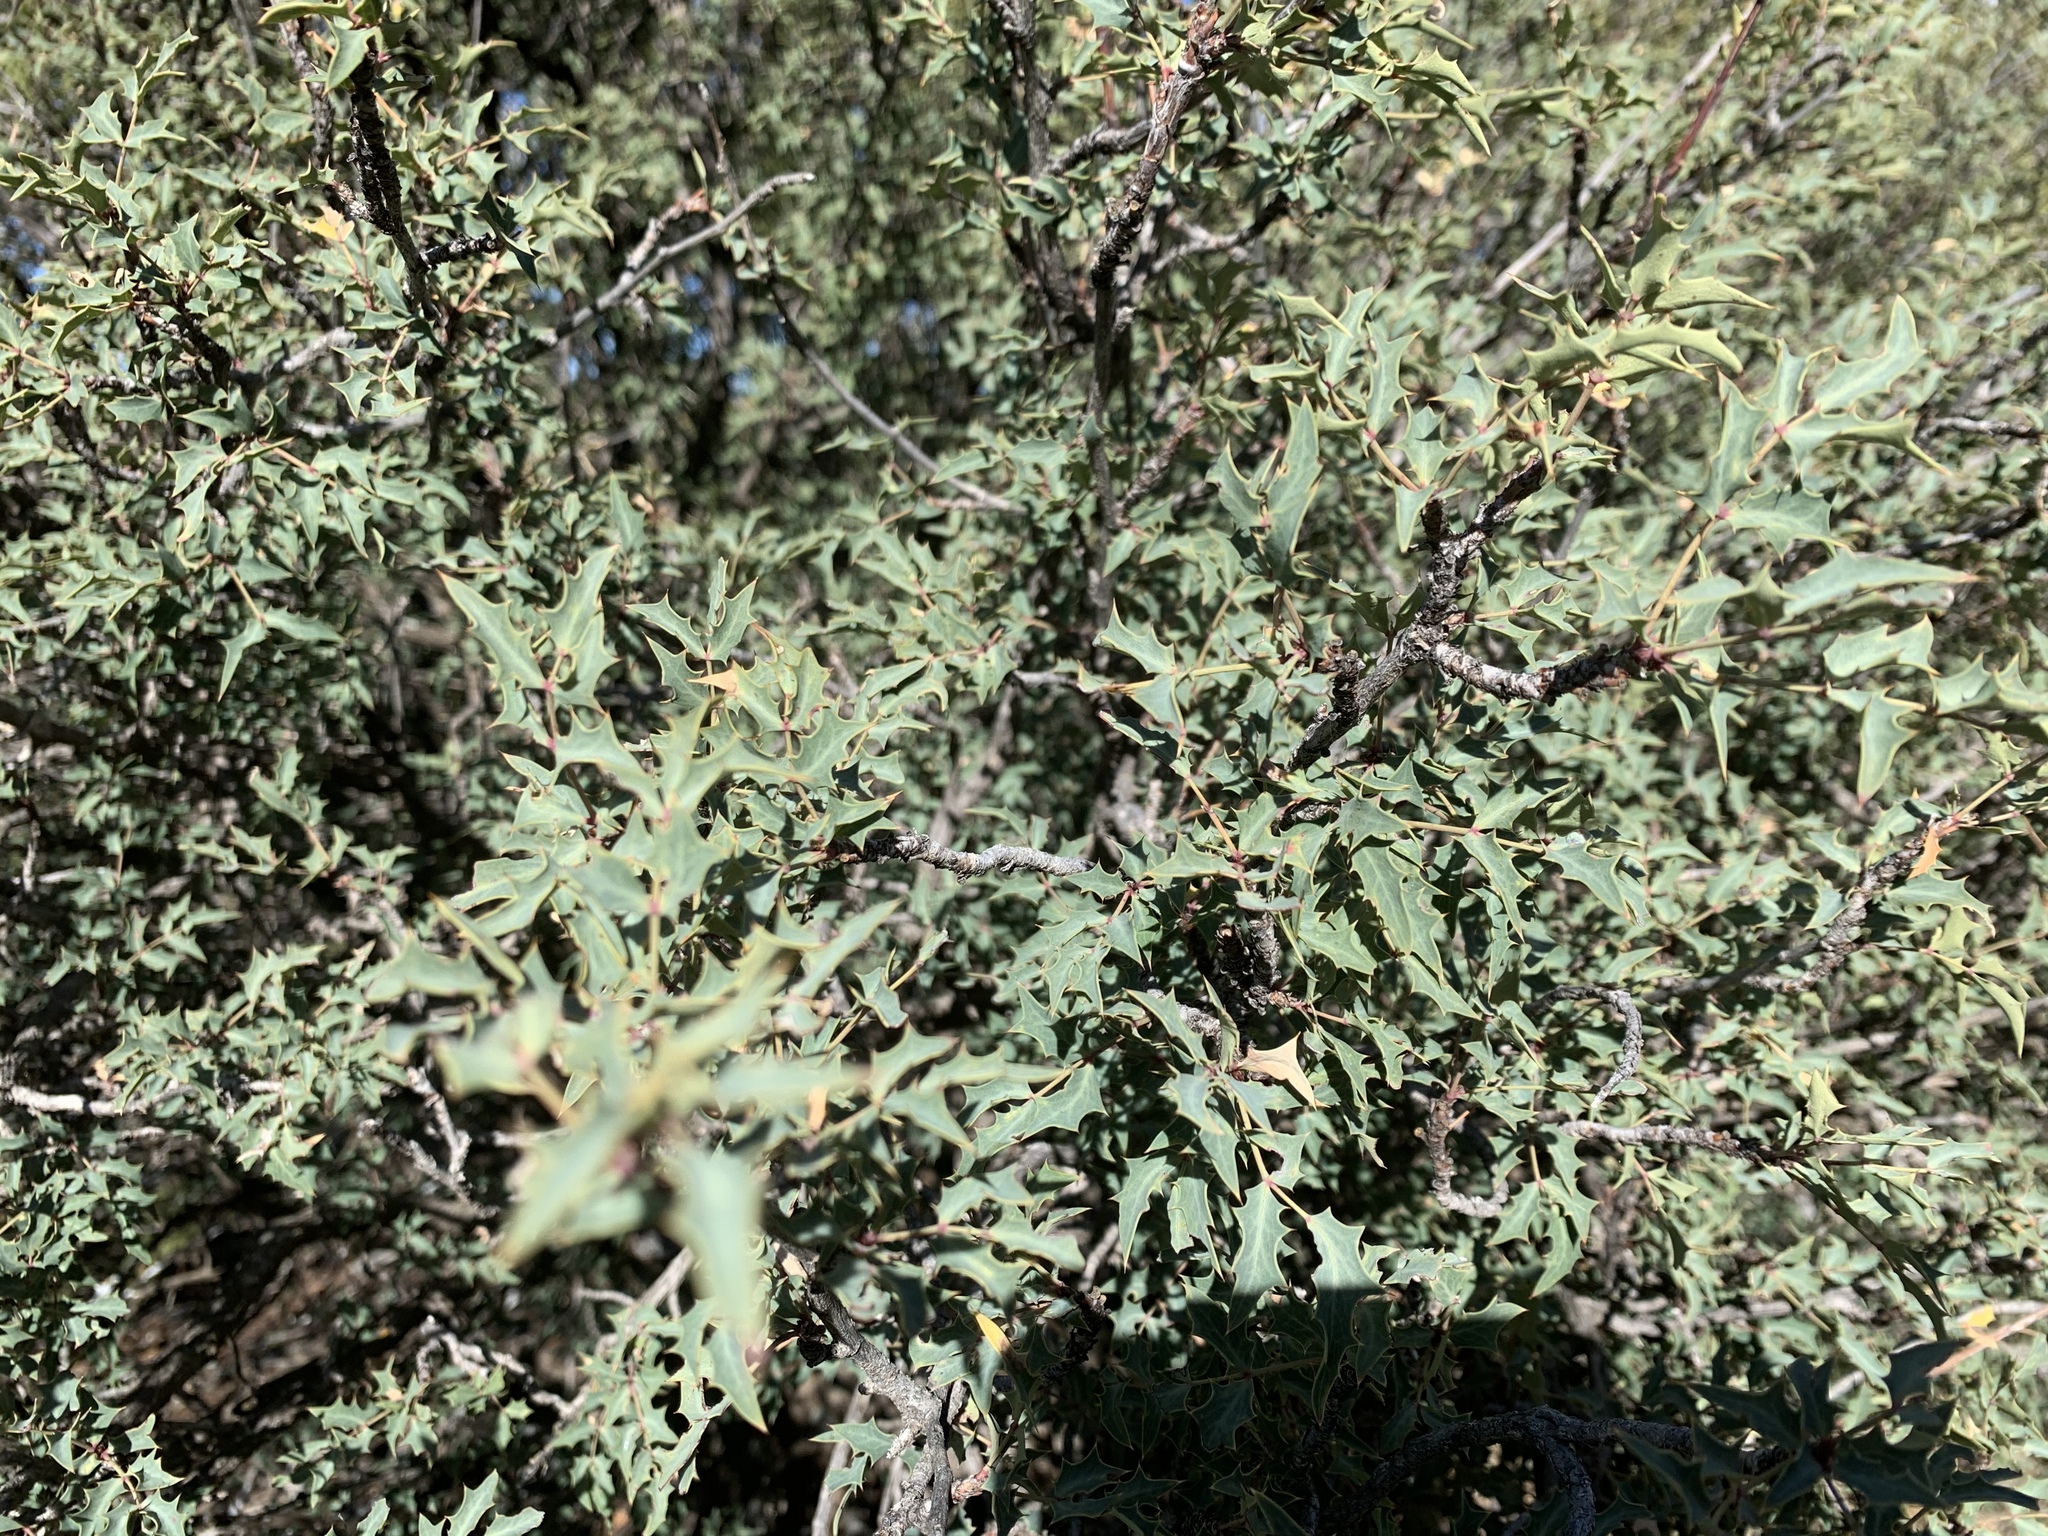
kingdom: Plantae
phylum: Tracheophyta
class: Magnoliopsida
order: Ranunculales
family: Berberidaceae
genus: Alloberberis
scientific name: Alloberberis haematocarpa
